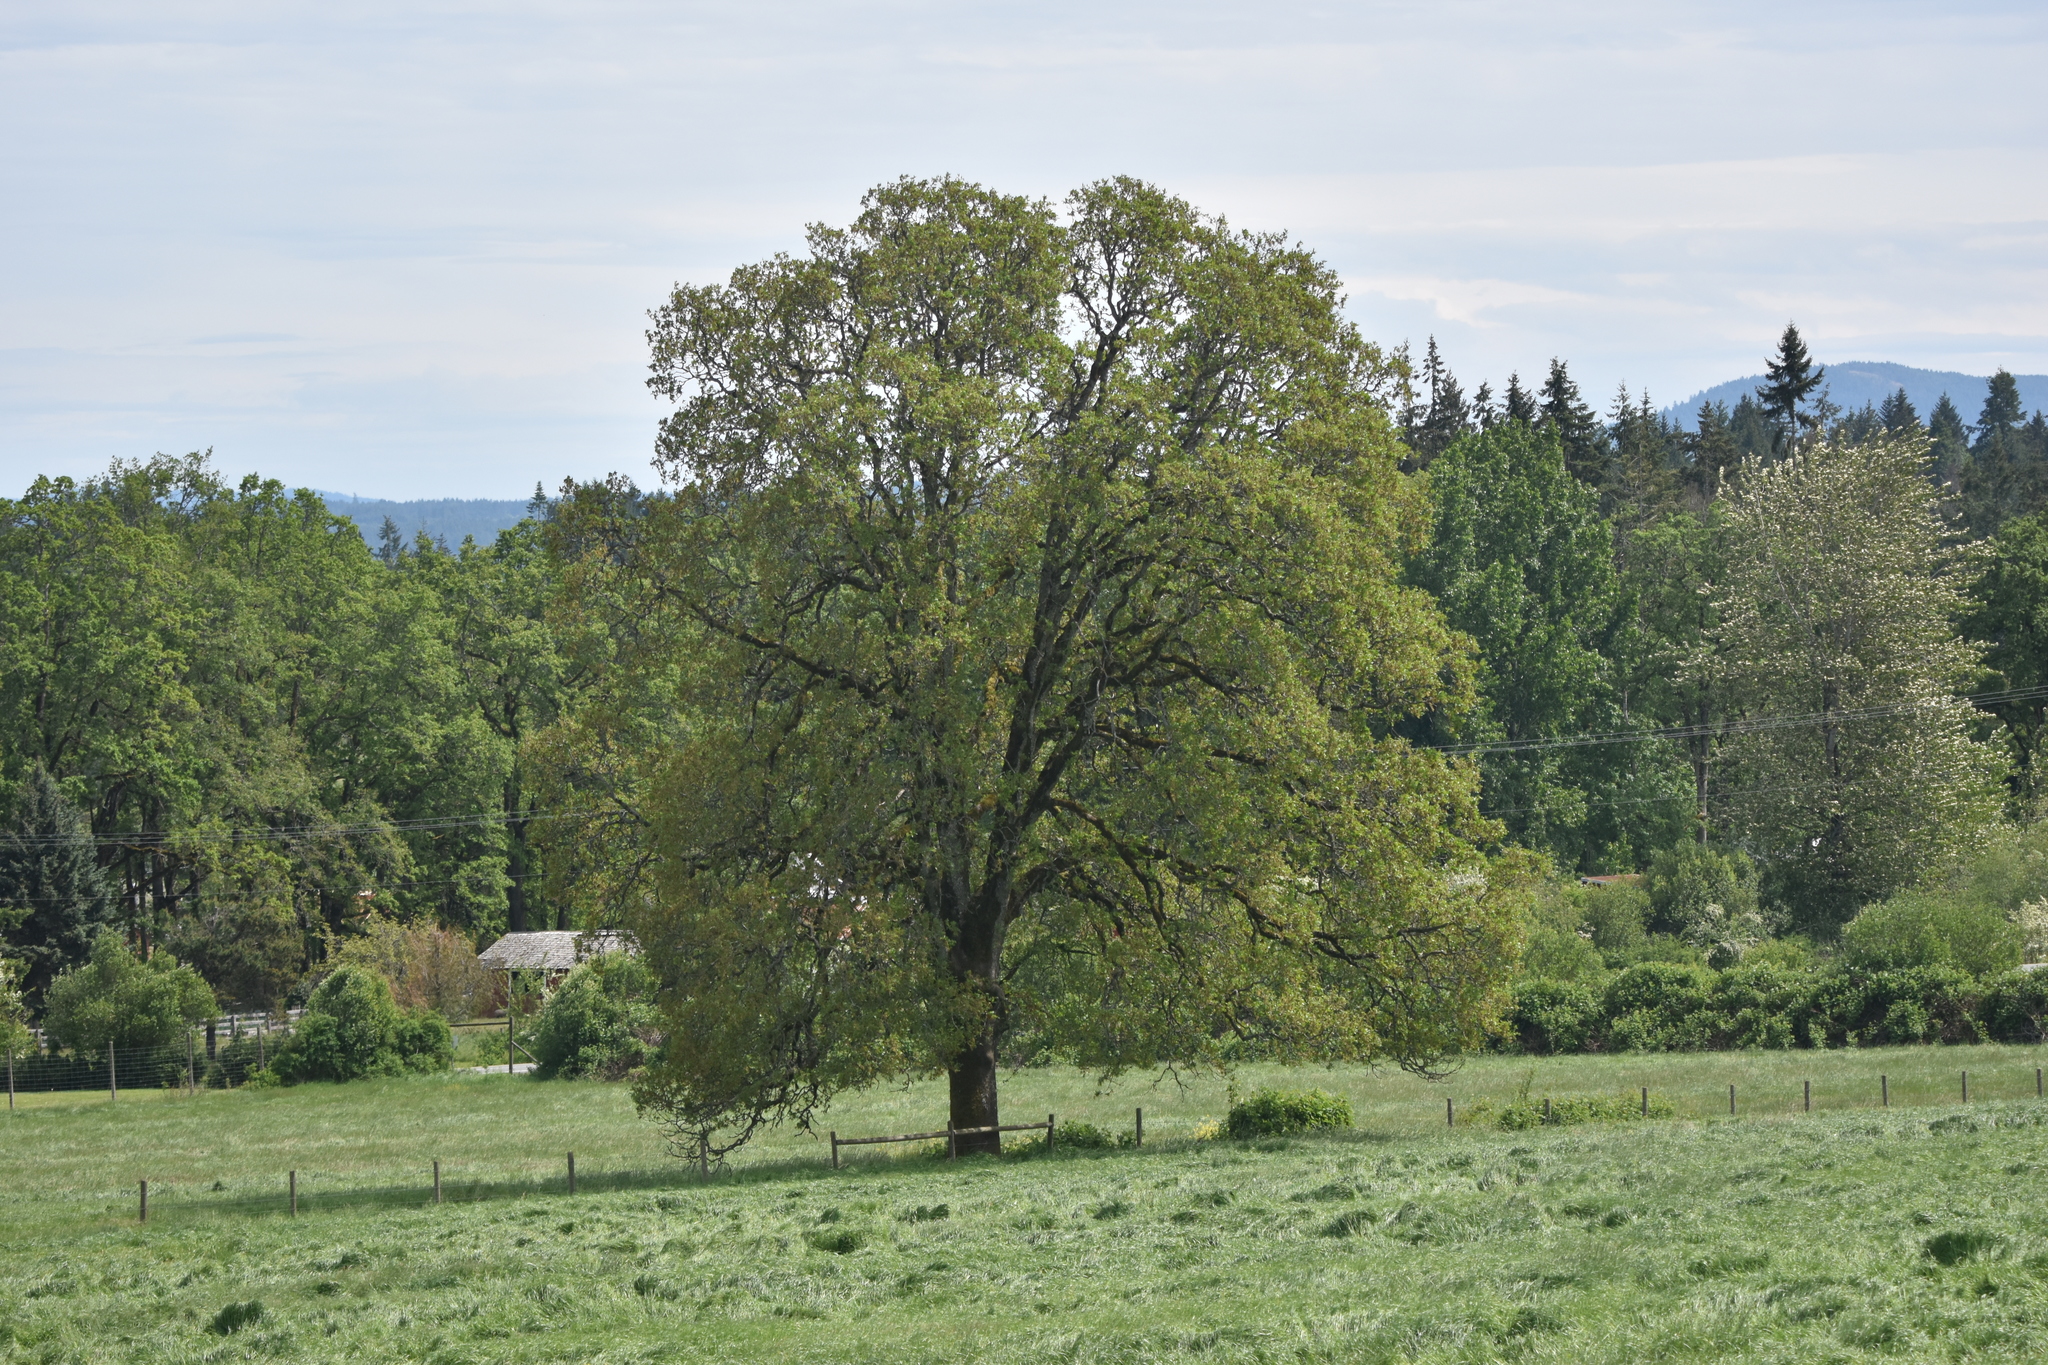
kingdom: Plantae
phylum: Tracheophyta
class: Magnoliopsida
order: Fagales
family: Fagaceae
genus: Quercus
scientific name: Quercus garryana
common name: Garry oak
